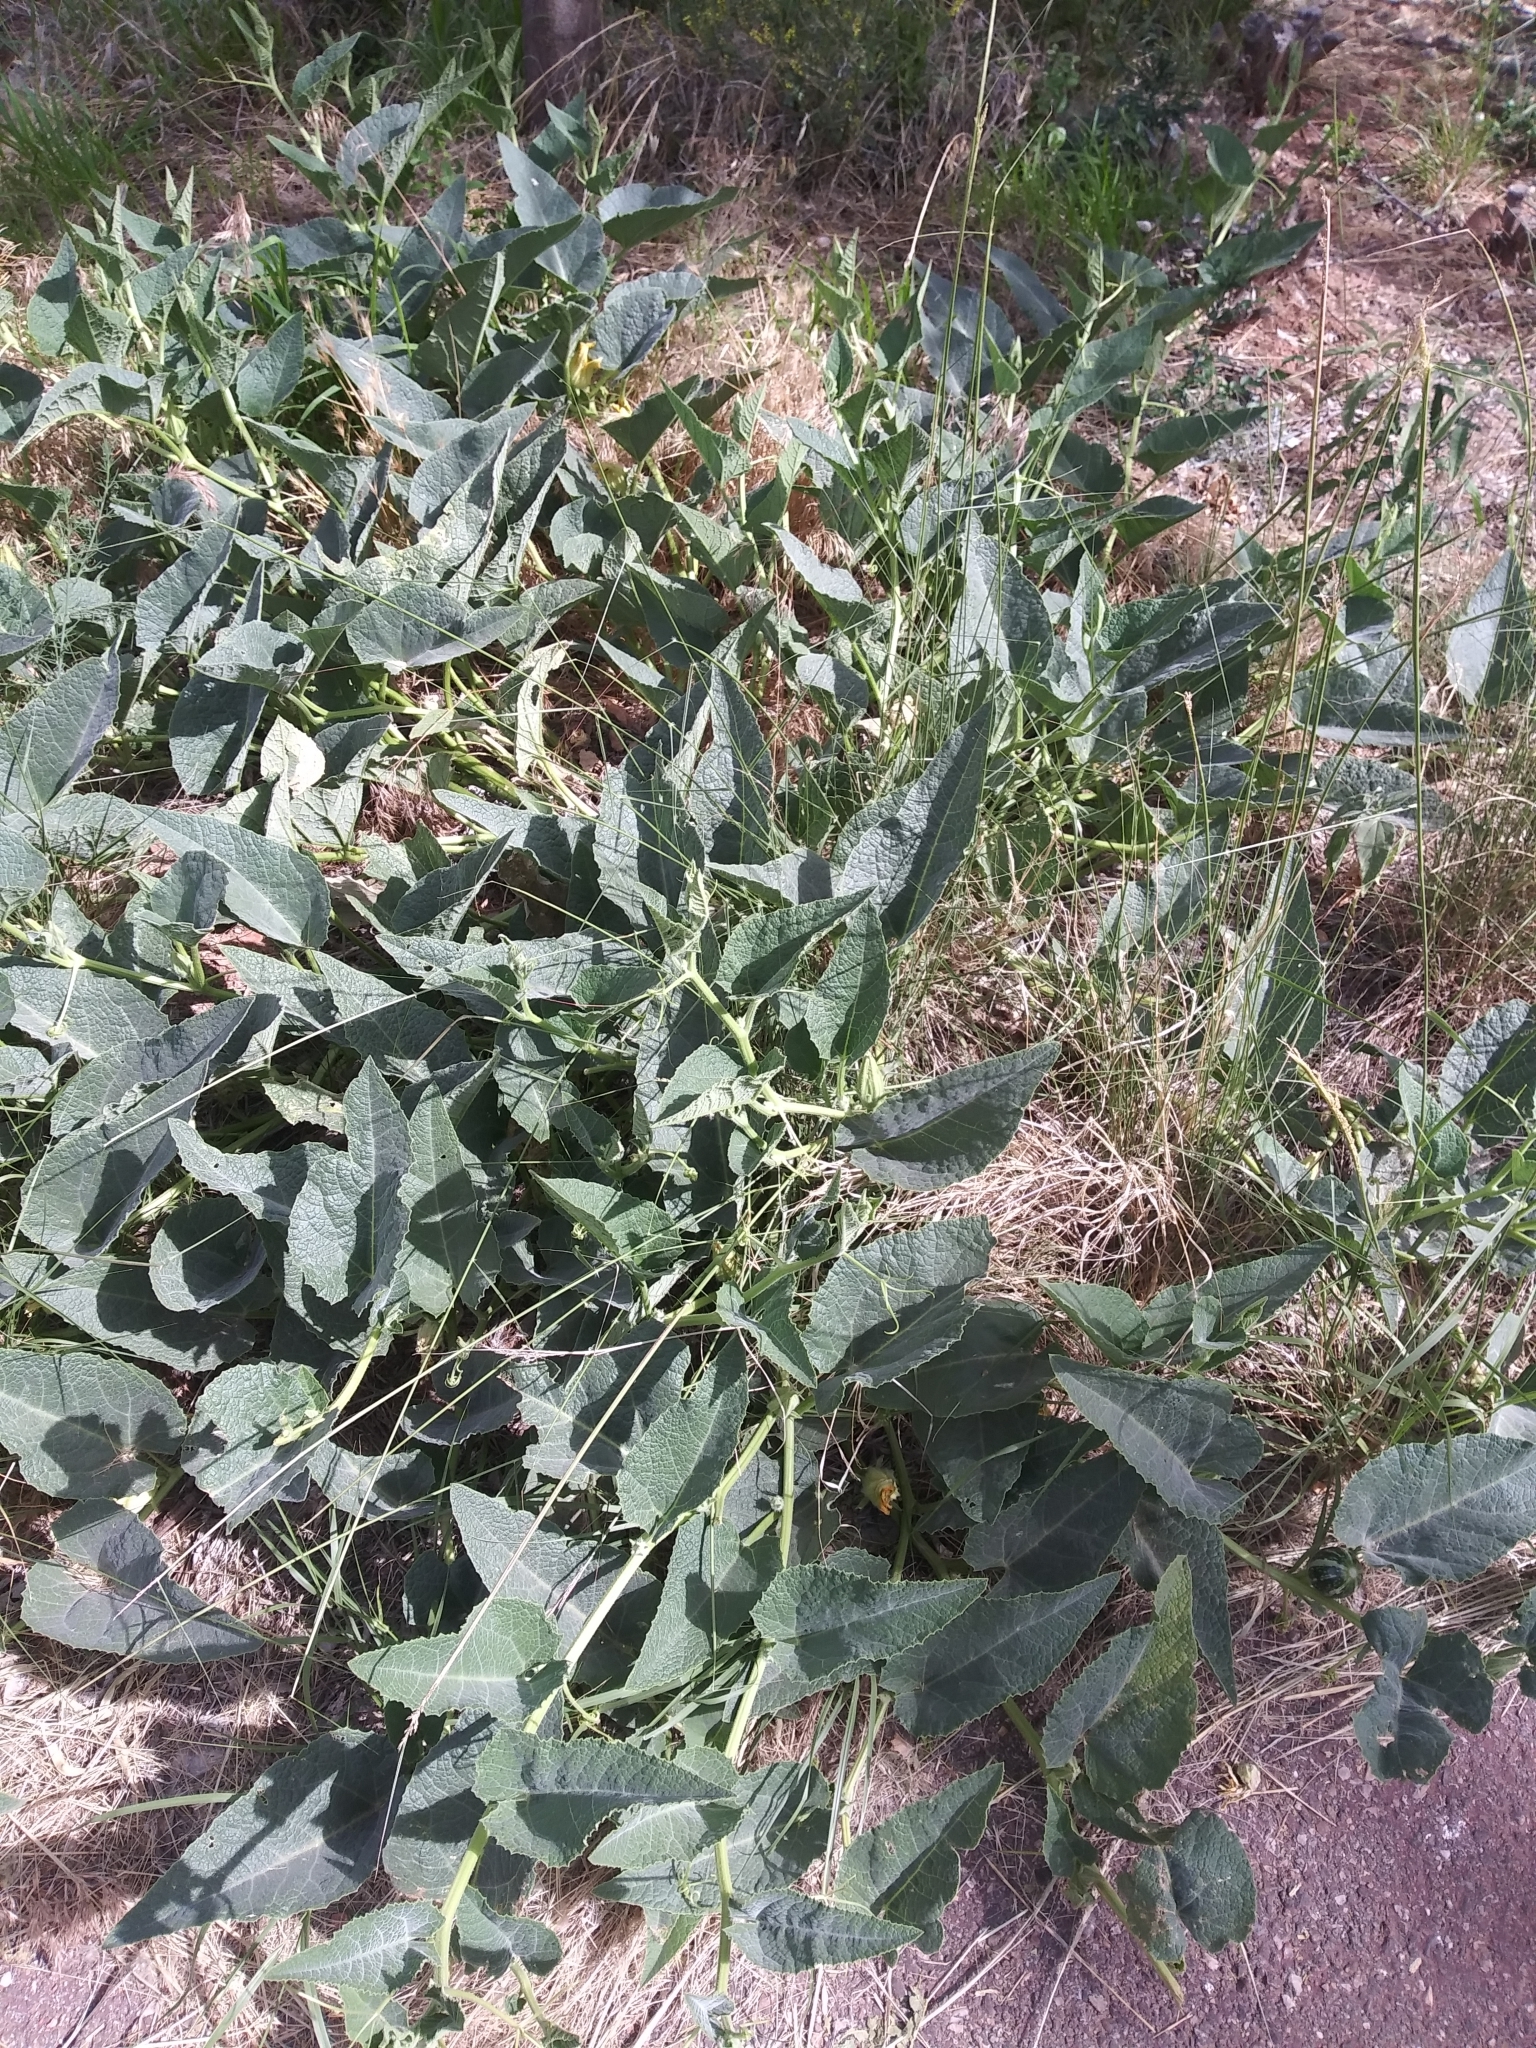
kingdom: Plantae
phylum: Tracheophyta
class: Magnoliopsida
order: Cucurbitales
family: Cucurbitaceae
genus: Cucurbita
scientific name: Cucurbita foetidissima
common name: Buffalo gourd
